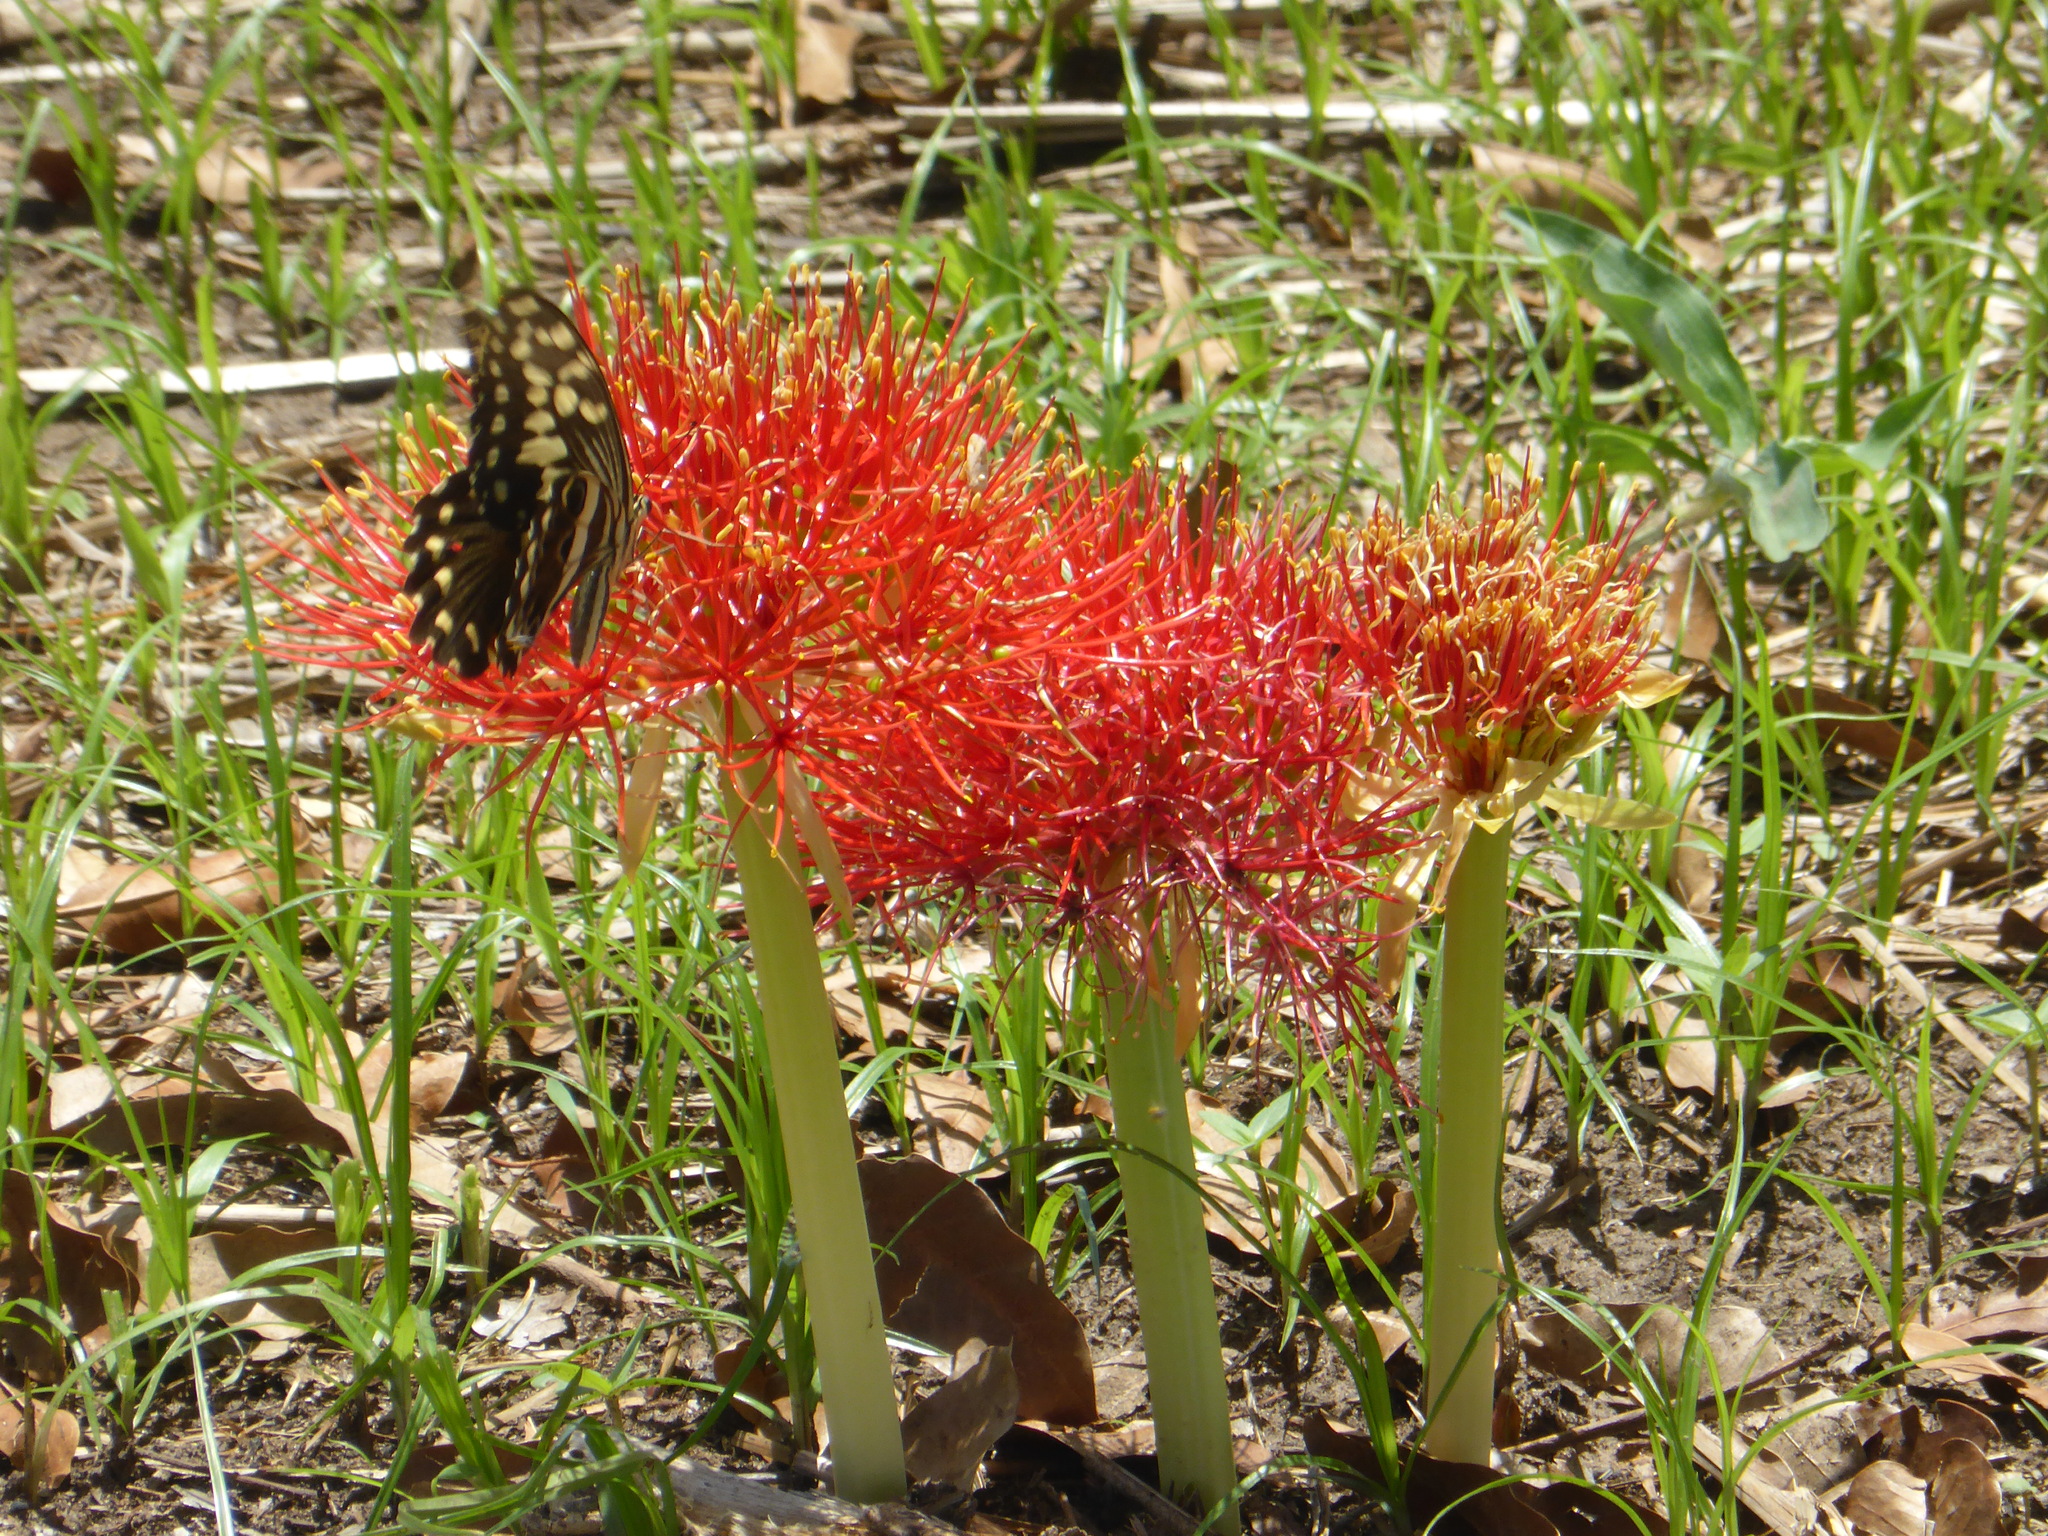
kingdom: Animalia
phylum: Arthropoda
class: Insecta
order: Lepidoptera
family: Papilionidae
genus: Papilio
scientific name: Papilio demodocus
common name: Christmas butterfly
